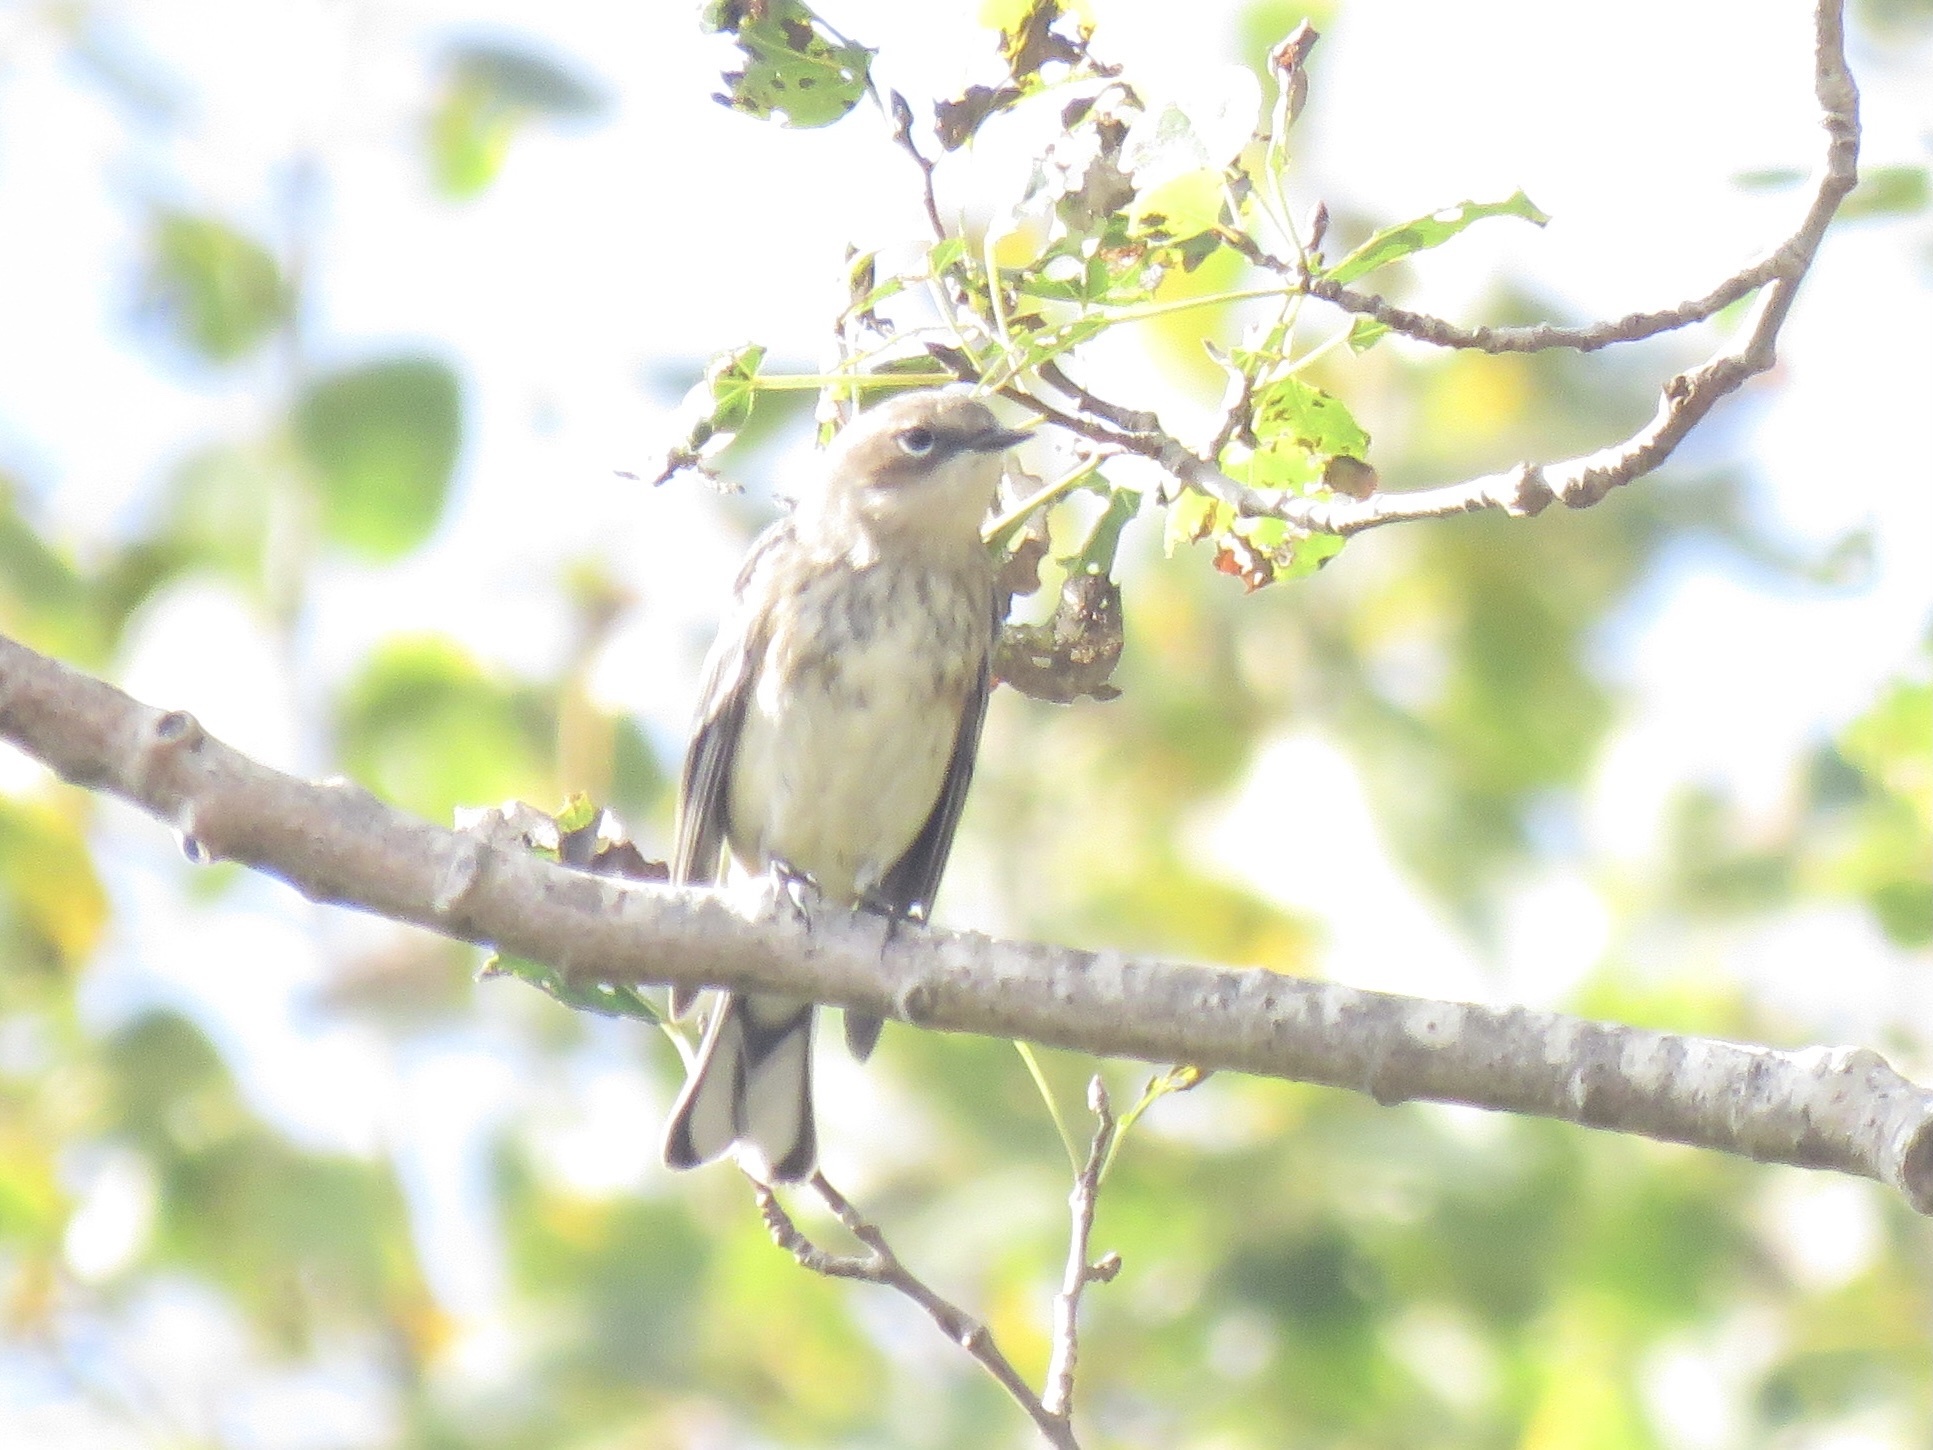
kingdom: Animalia
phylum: Chordata
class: Aves
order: Passeriformes
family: Parulidae
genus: Setophaga
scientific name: Setophaga coronata
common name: Myrtle warbler
